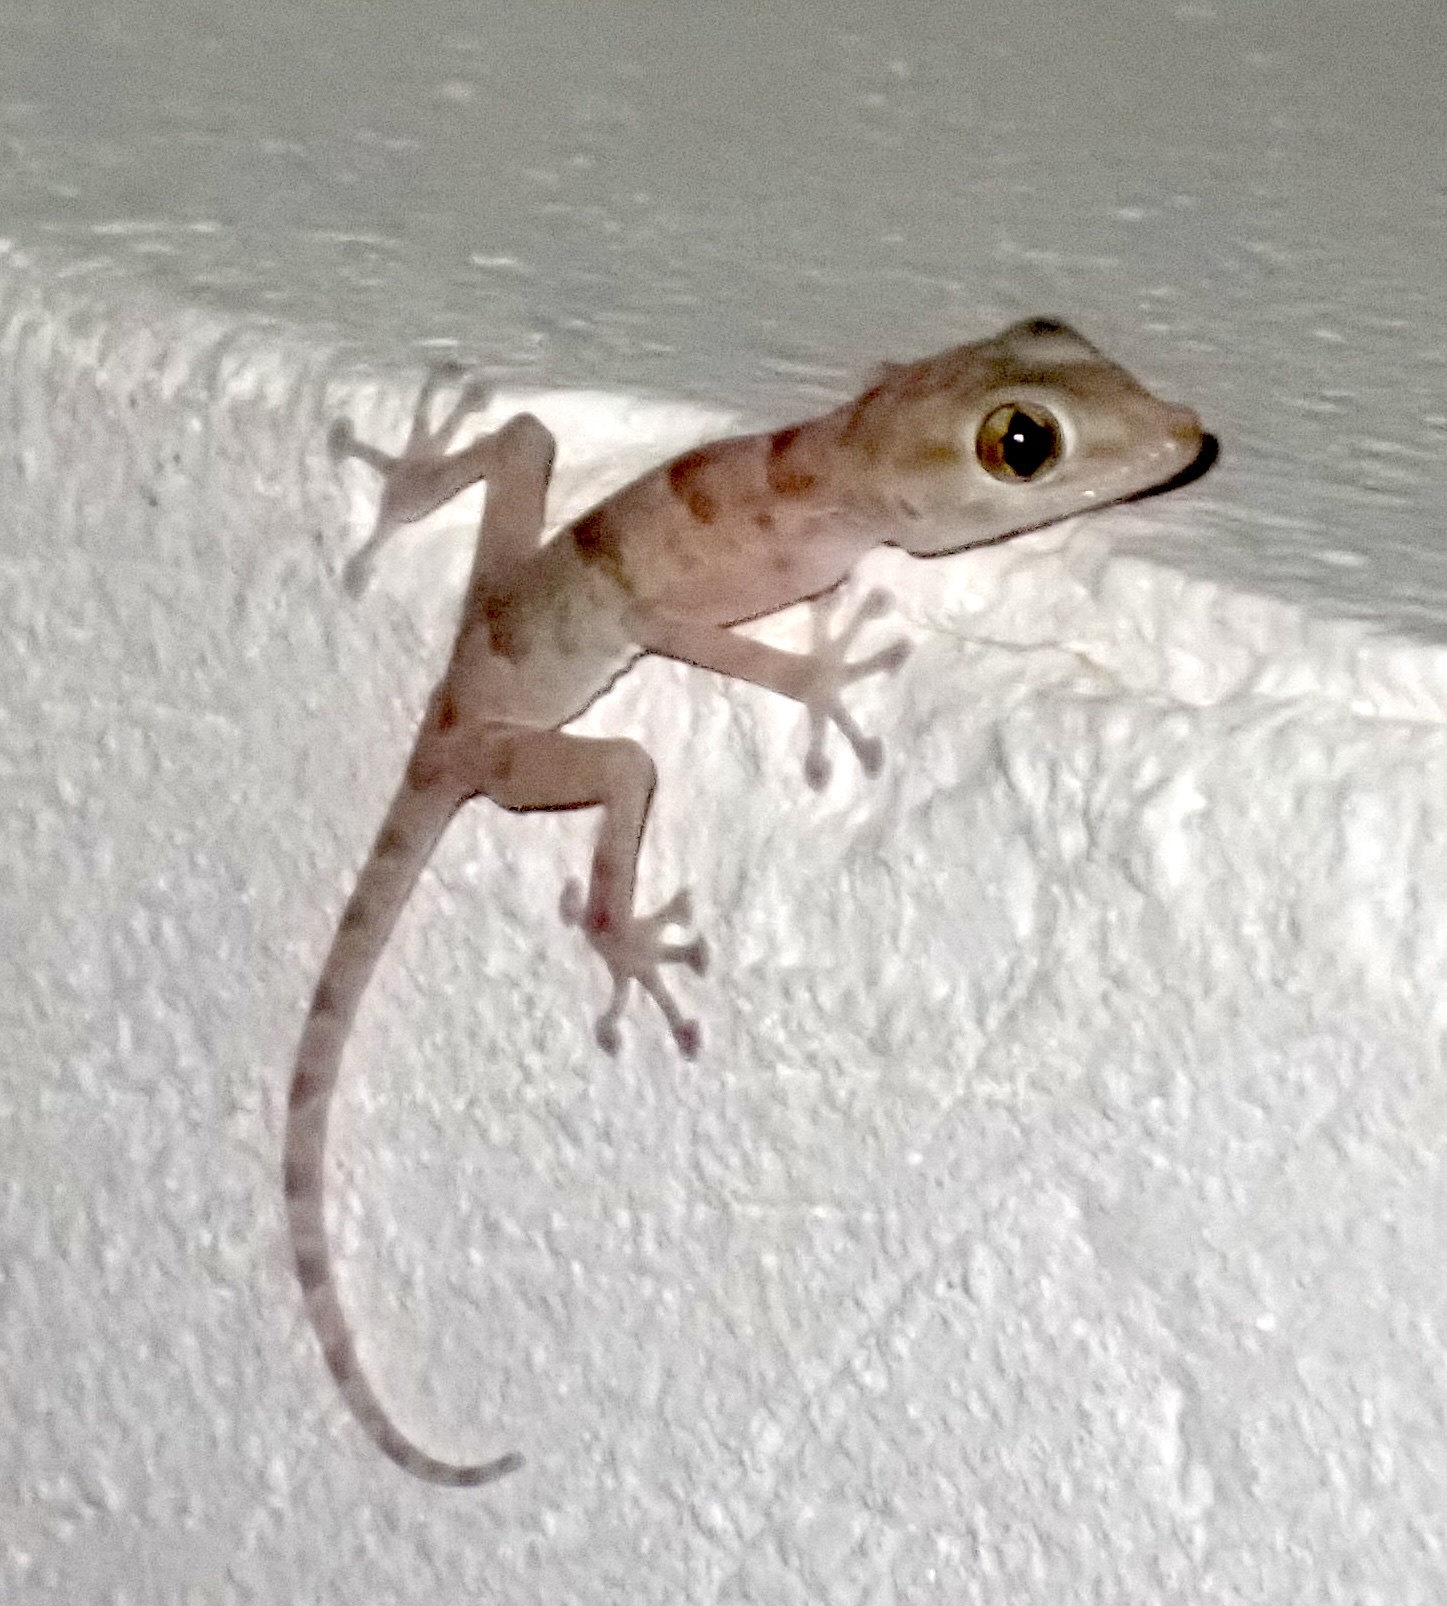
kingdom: Animalia
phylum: Chordata
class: Squamata
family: Phyllodactylidae
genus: Ptyodactylus
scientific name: Ptyodactylus hasselquistii
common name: Hasselquist’s fan-footed gecko
